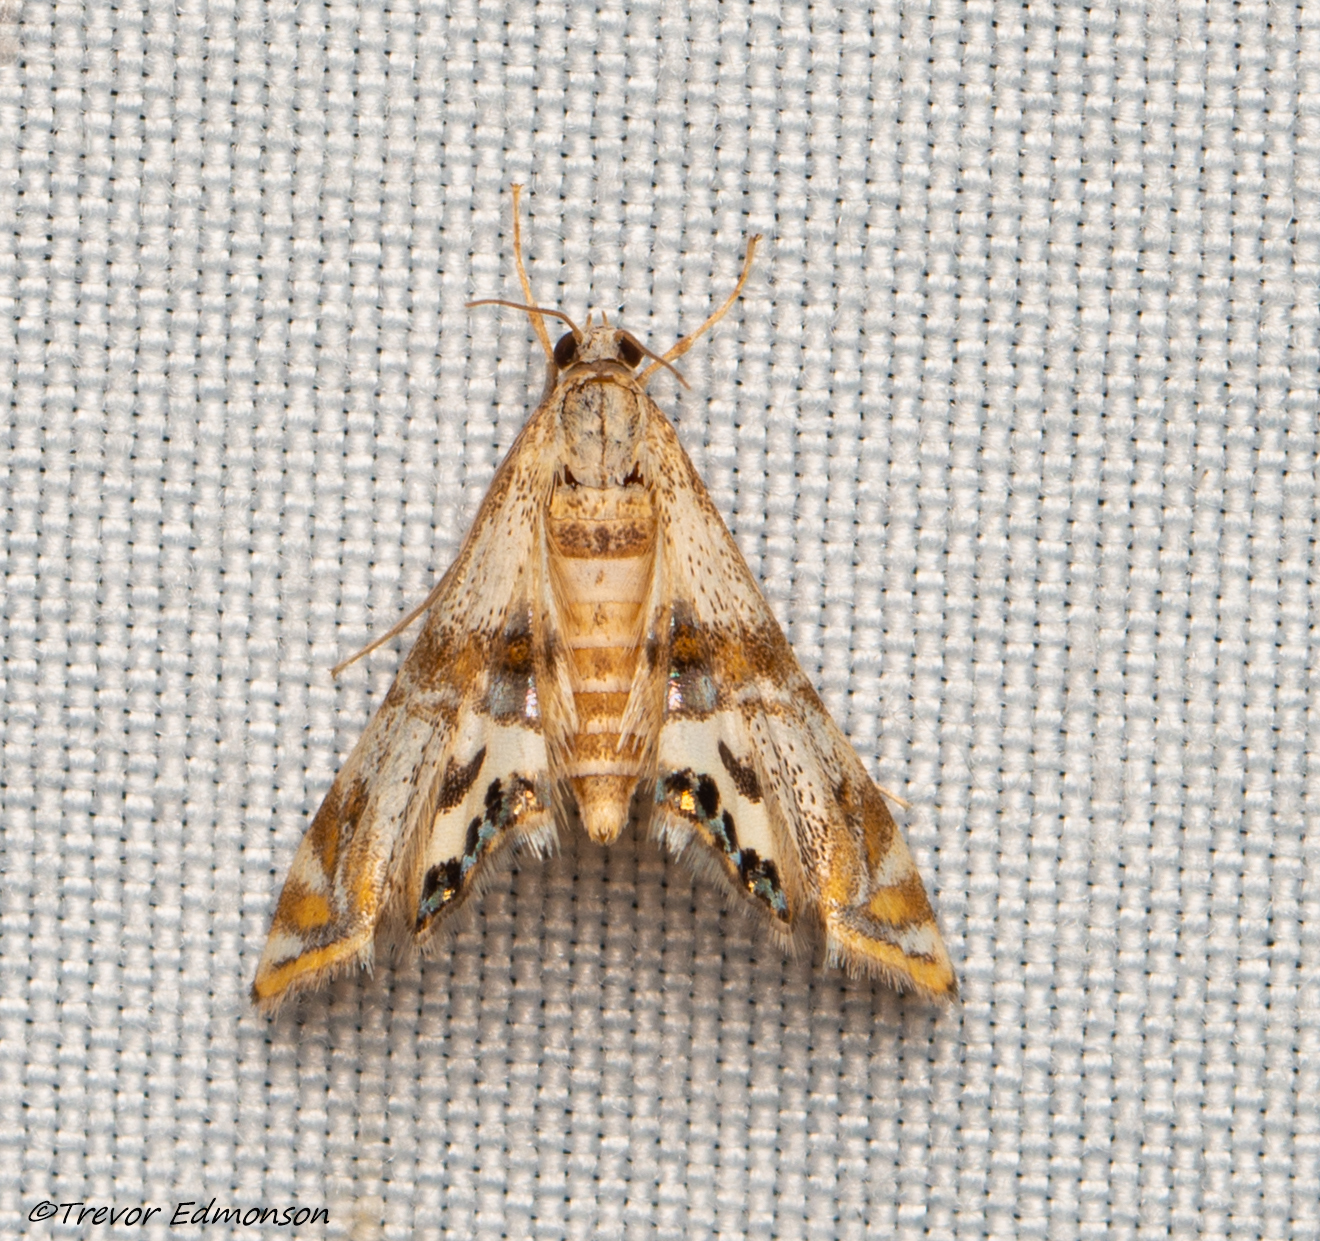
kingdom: Animalia
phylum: Arthropoda
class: Insecta
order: Lepidoptera
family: Crambidae
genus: Petrophila
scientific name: Petrophila bifascialis
